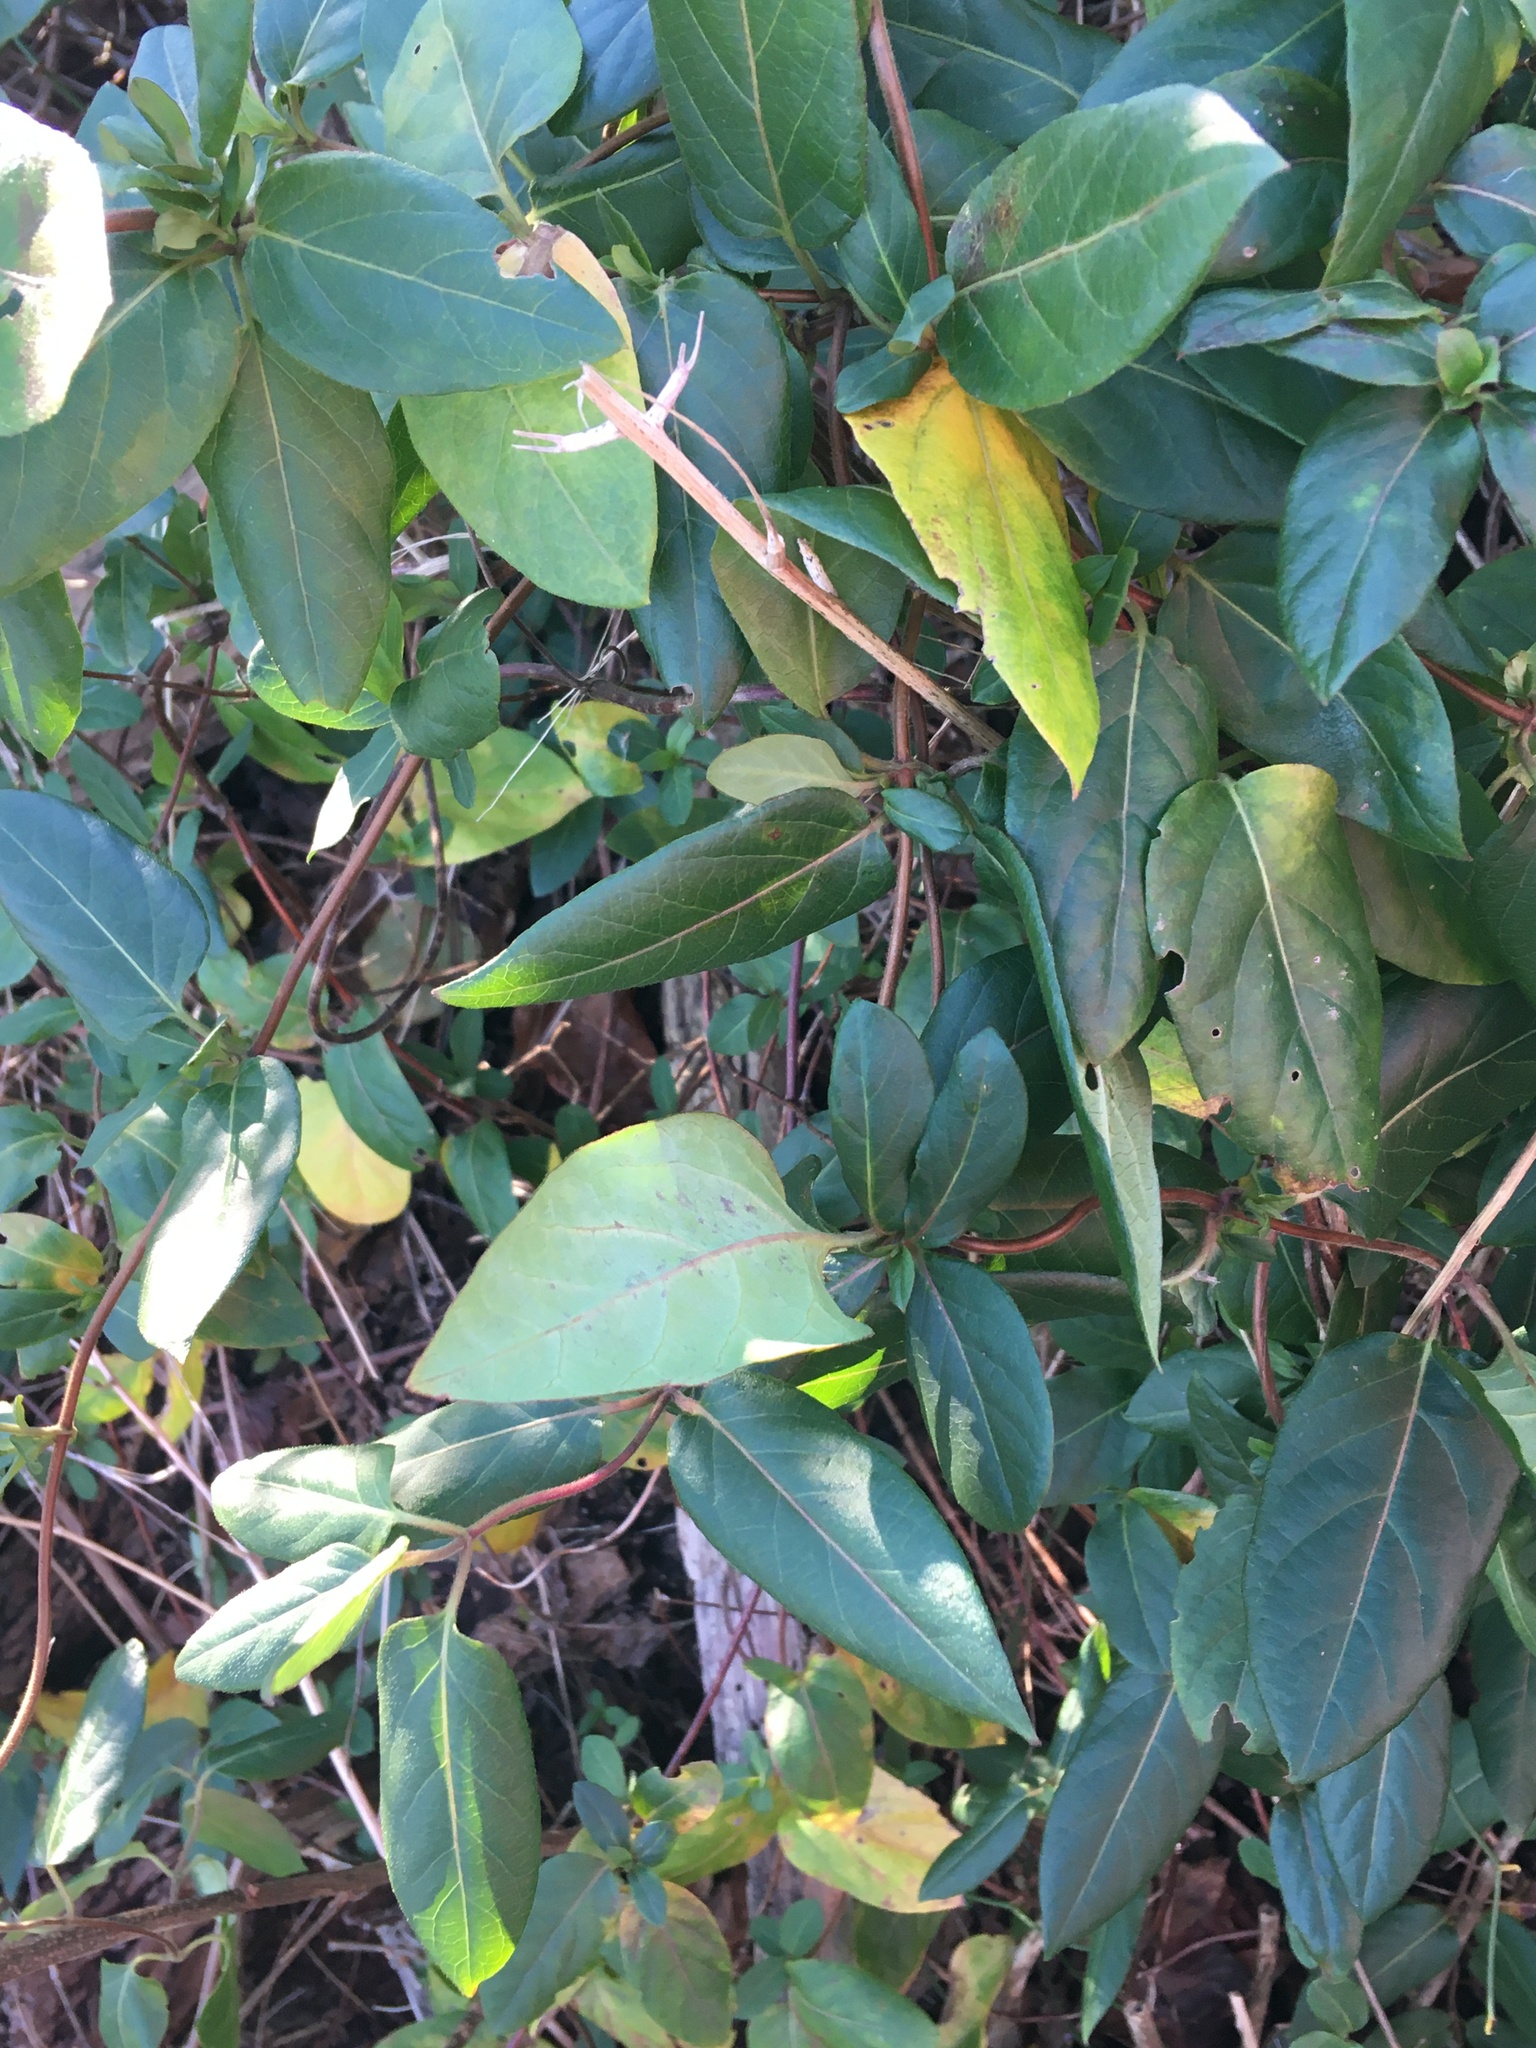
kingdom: Plantae
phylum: Tracheophyta
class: Magnoliopsida
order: Dipsacales
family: Caprifoliaceae
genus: Lonicera
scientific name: Lonicera japonica
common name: Japanese honeysuckle
